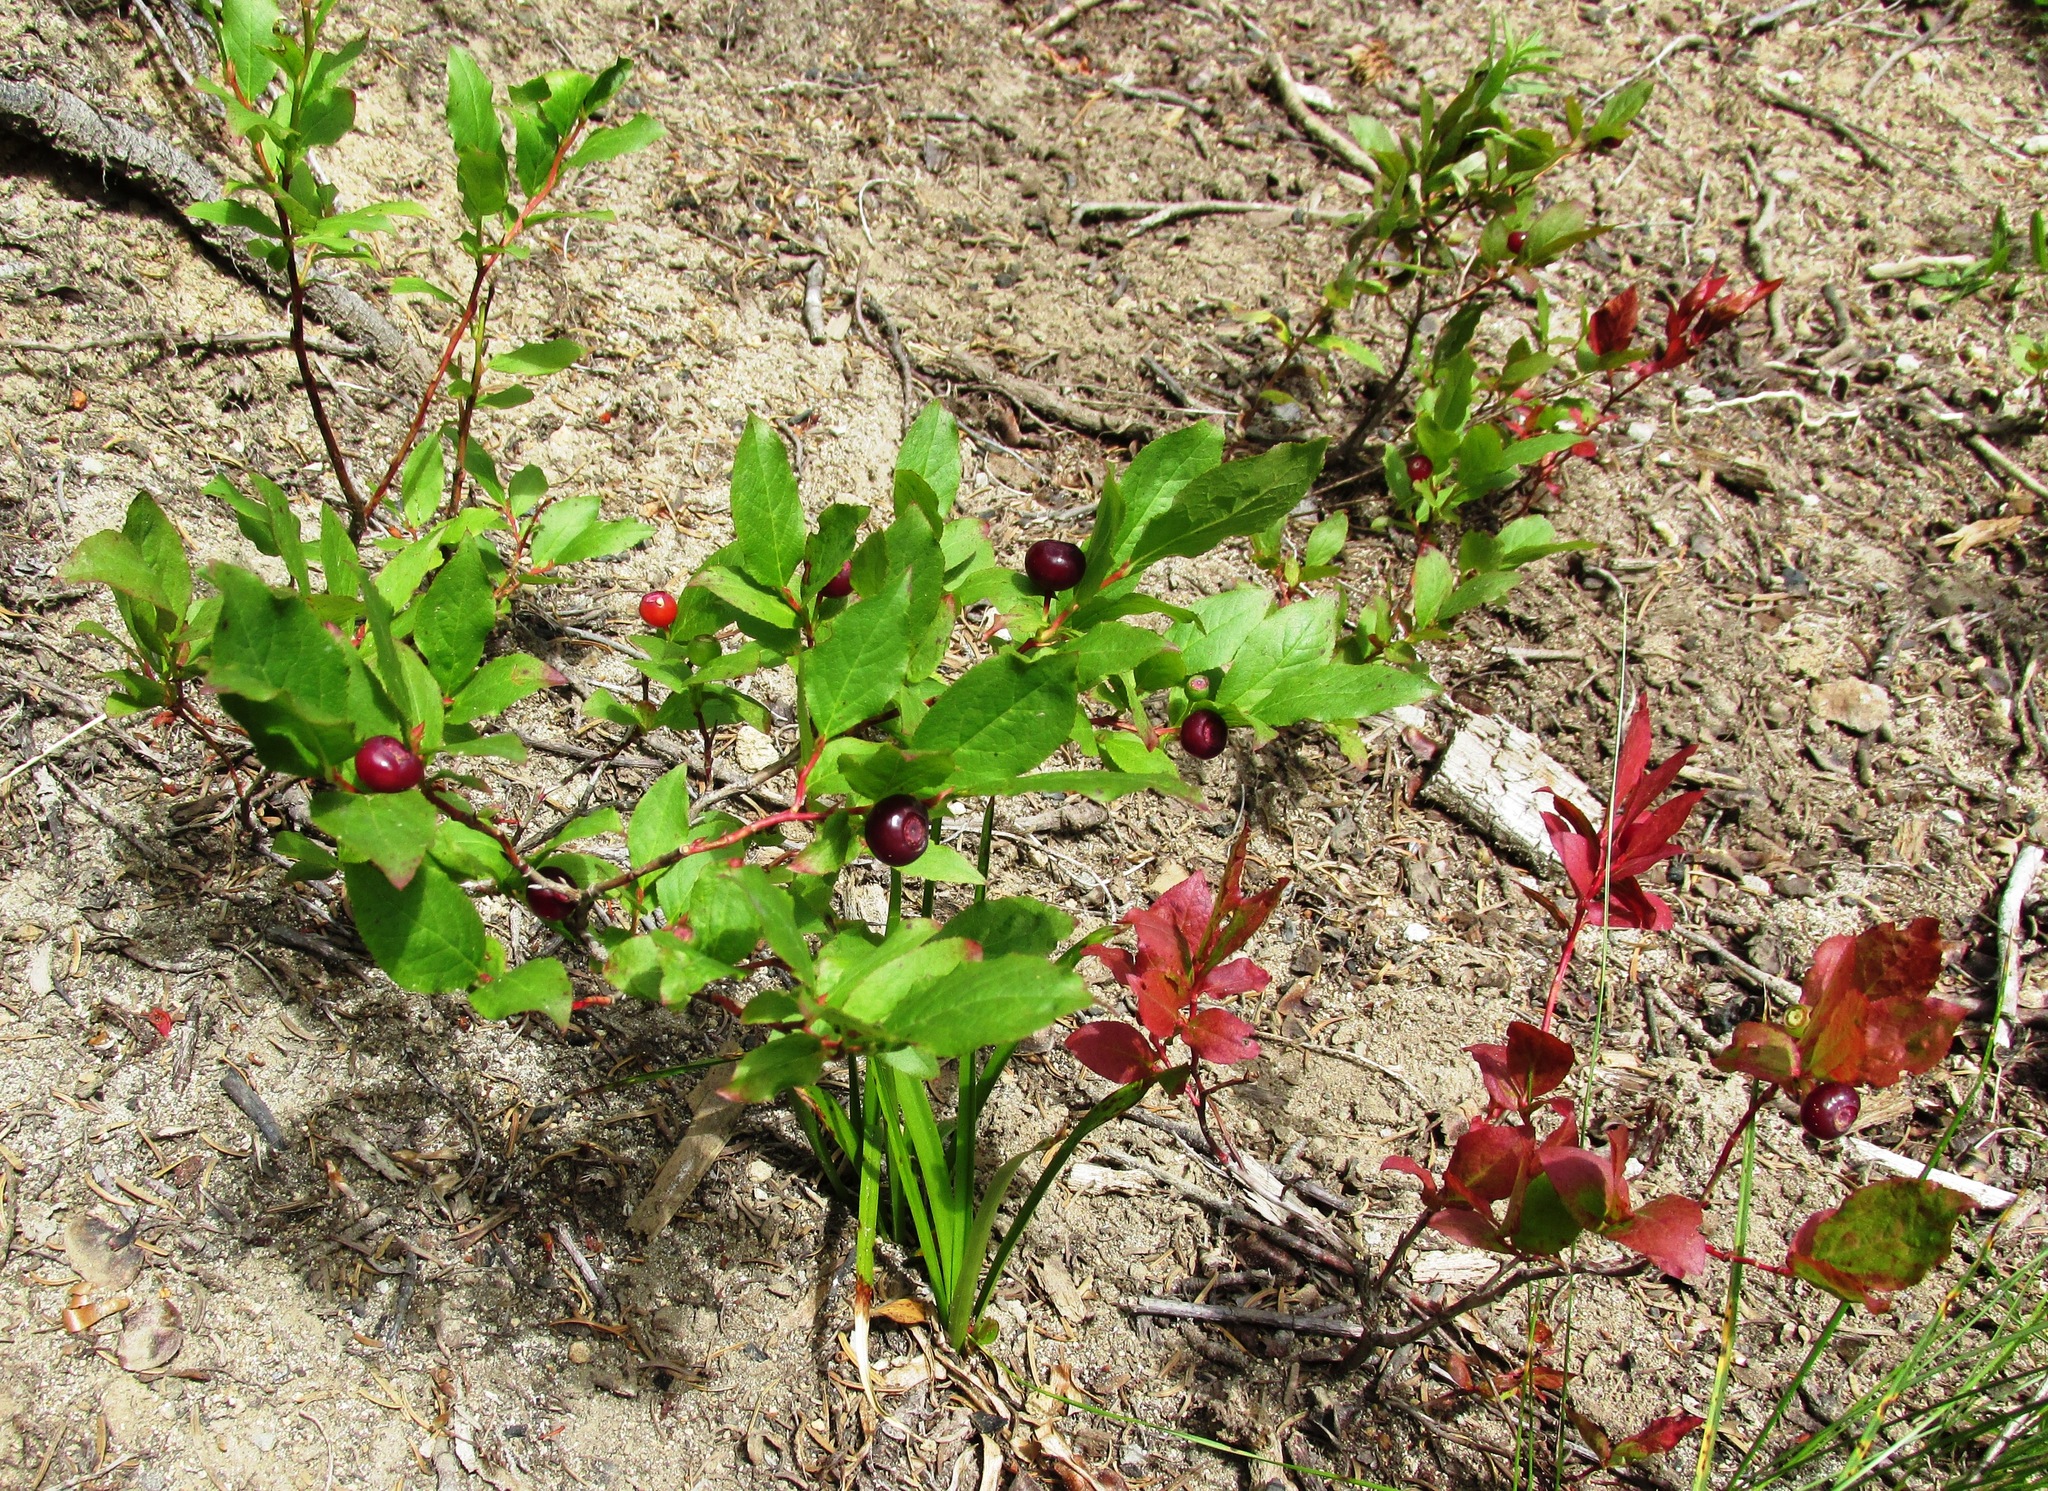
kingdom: Plantae
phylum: Tracheophyta
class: Magnoliopsida
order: Ericales
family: Ericaceae
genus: Vaccinium
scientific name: Vaccinium membranaceum
